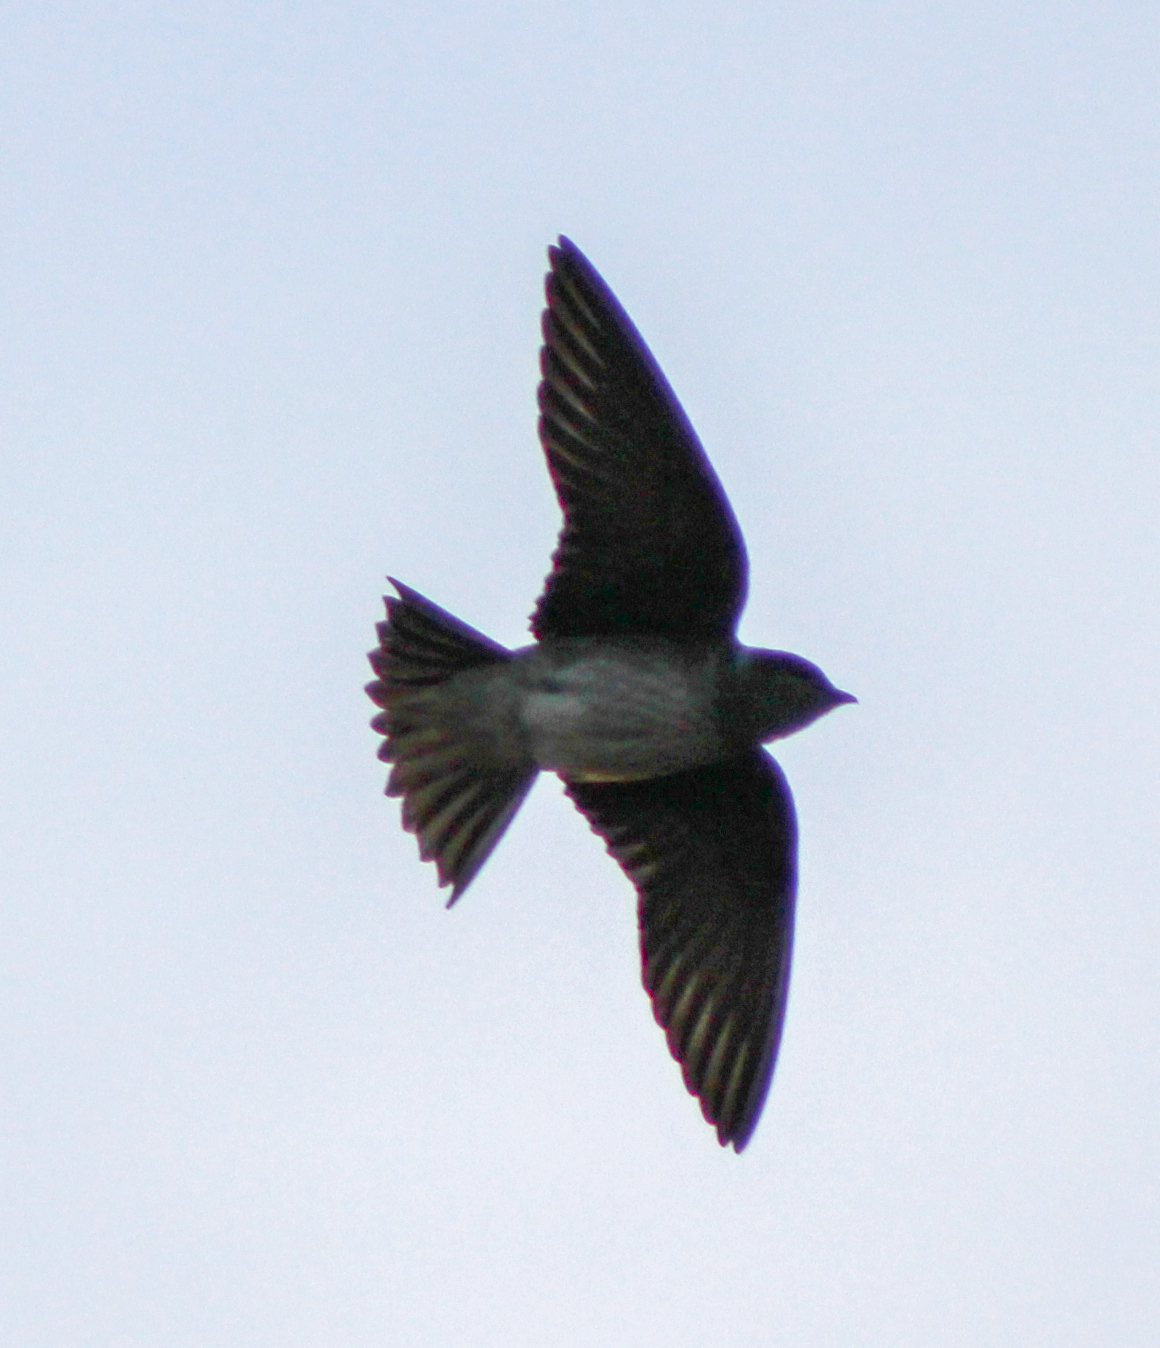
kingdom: Animalia
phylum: Chordata
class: Aves
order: Passeriformes
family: Hirundinidae
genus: Progne
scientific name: Progne subis
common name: Purple martin
